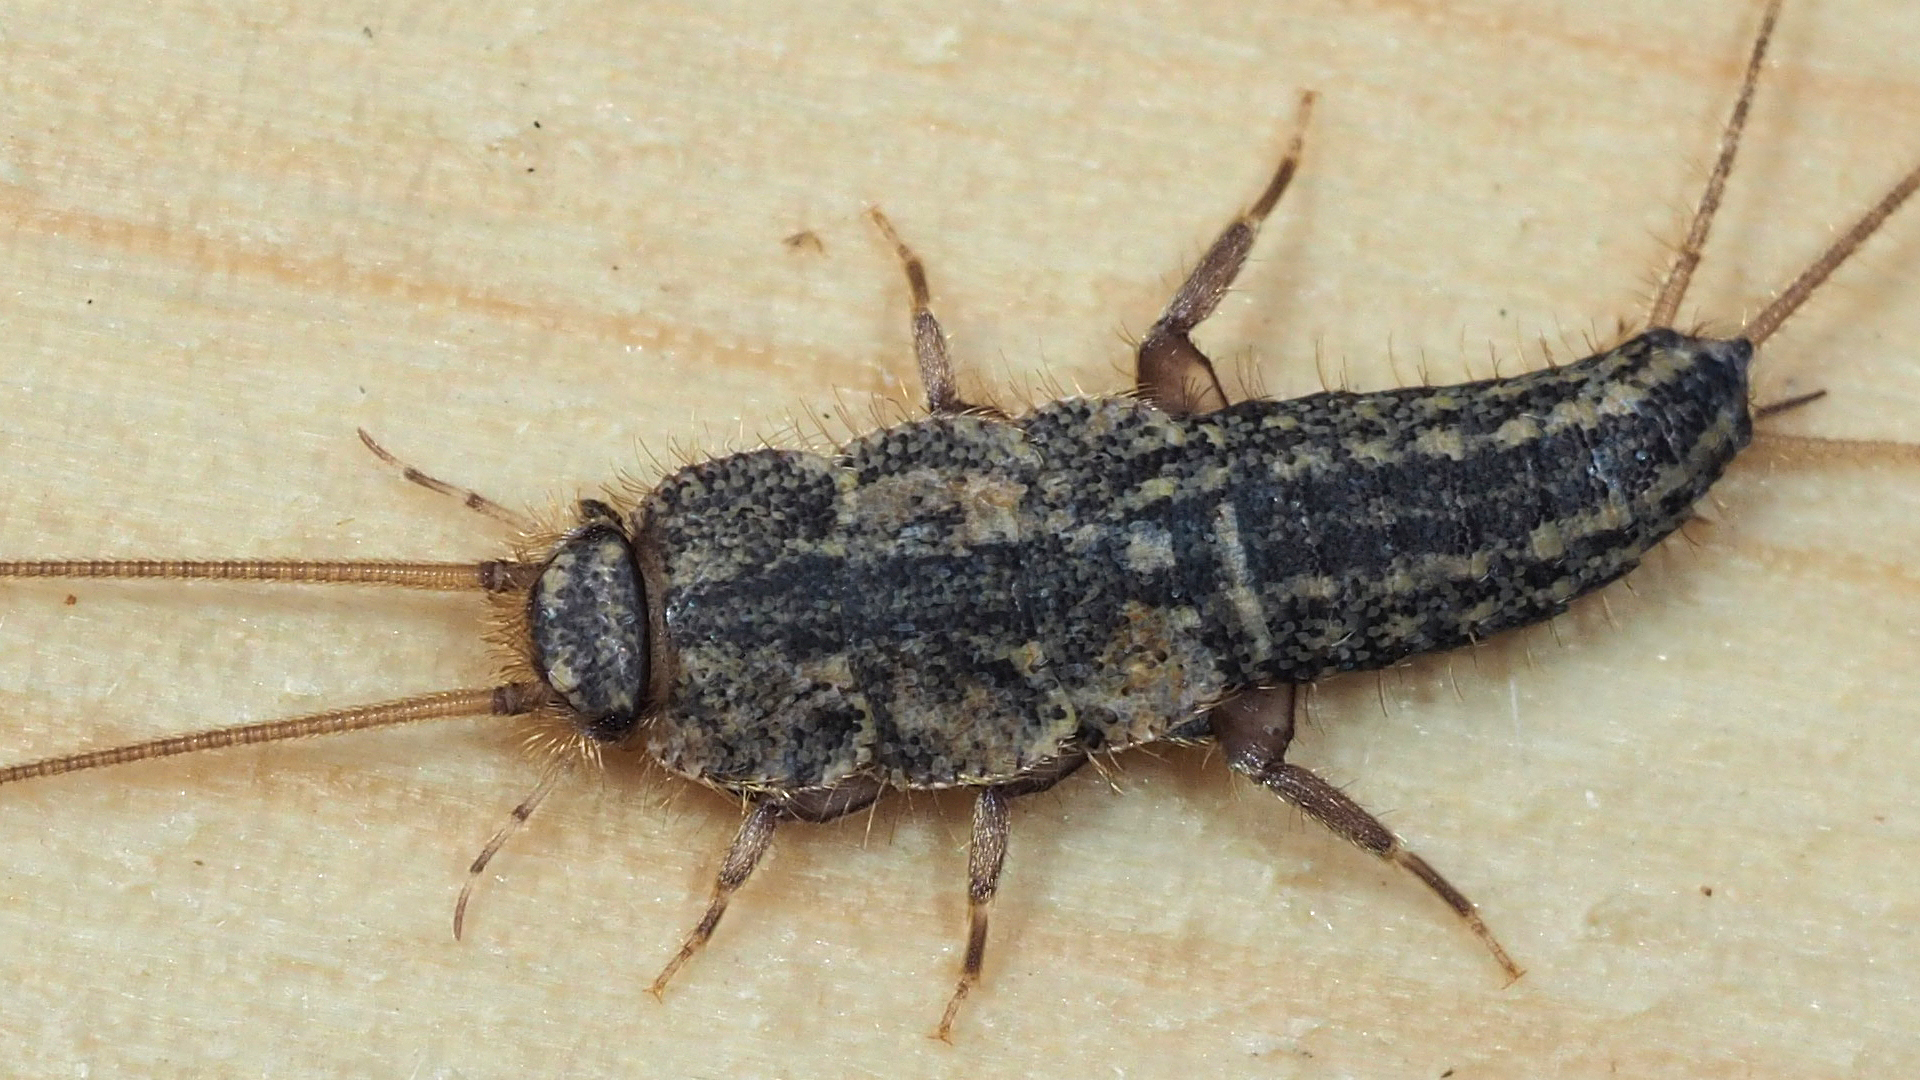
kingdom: Animalia
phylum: Arthropoda
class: Insecta
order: Zygentoma
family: Lepismatidae
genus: Ctenolepisma
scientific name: Ctenolepisma lineata
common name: Four-lined silverfish
